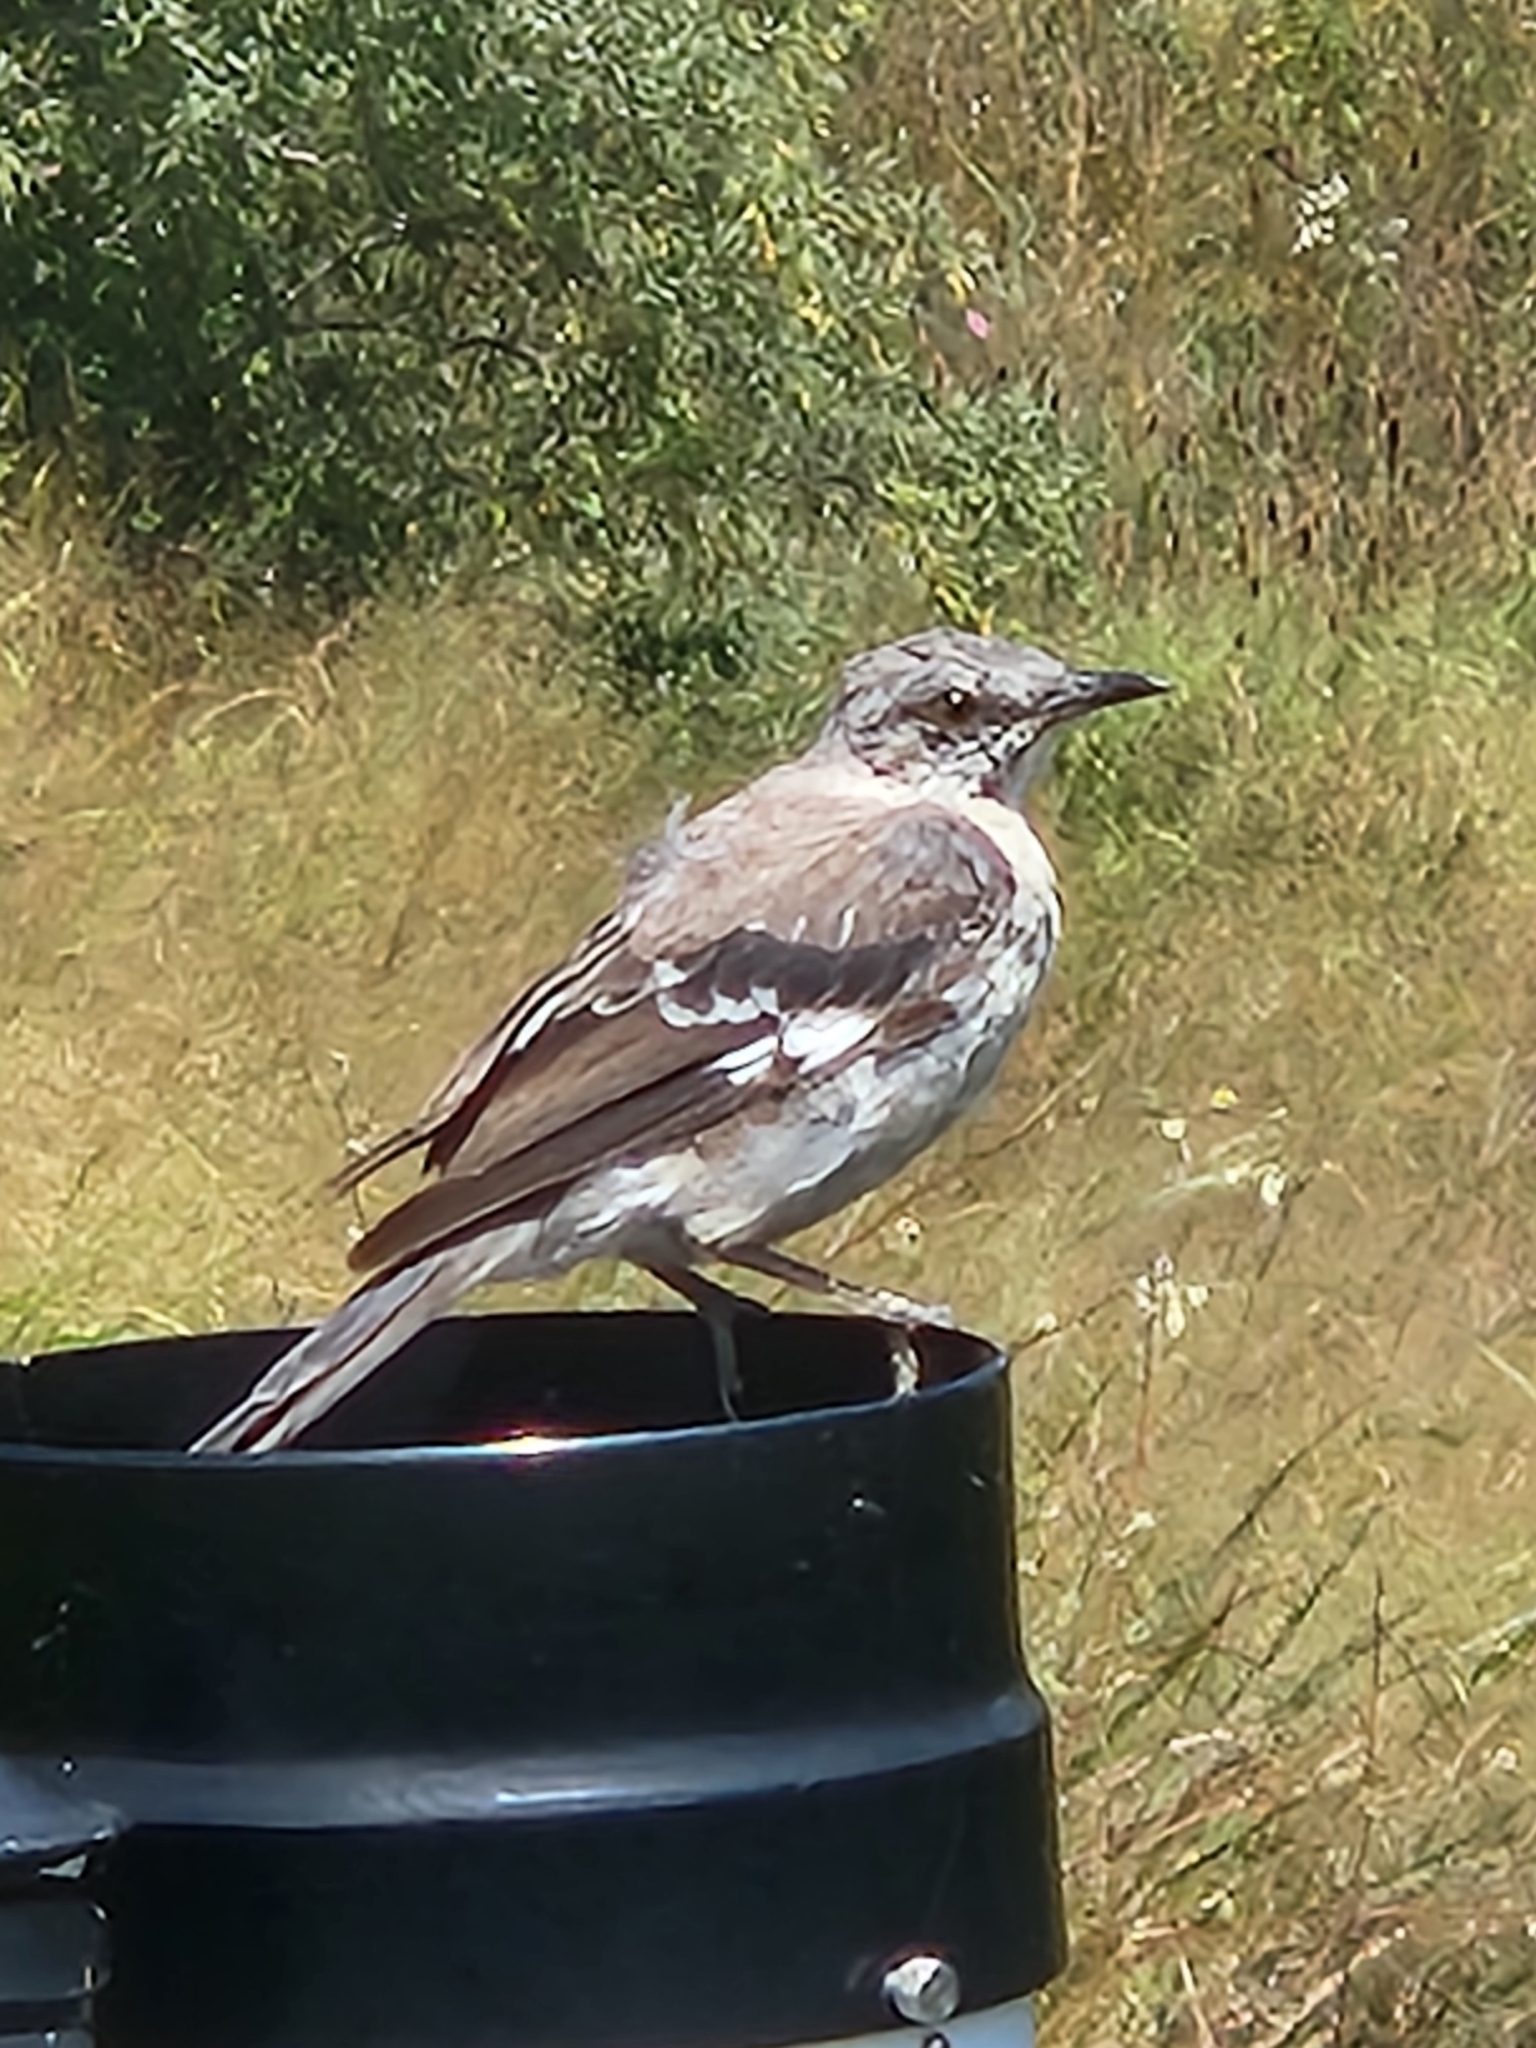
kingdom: Animalia
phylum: Chordata
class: Aves
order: Passeriformes
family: Mimidae
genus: Mimus
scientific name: Mimus polyglottos
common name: Northern mockingbird
